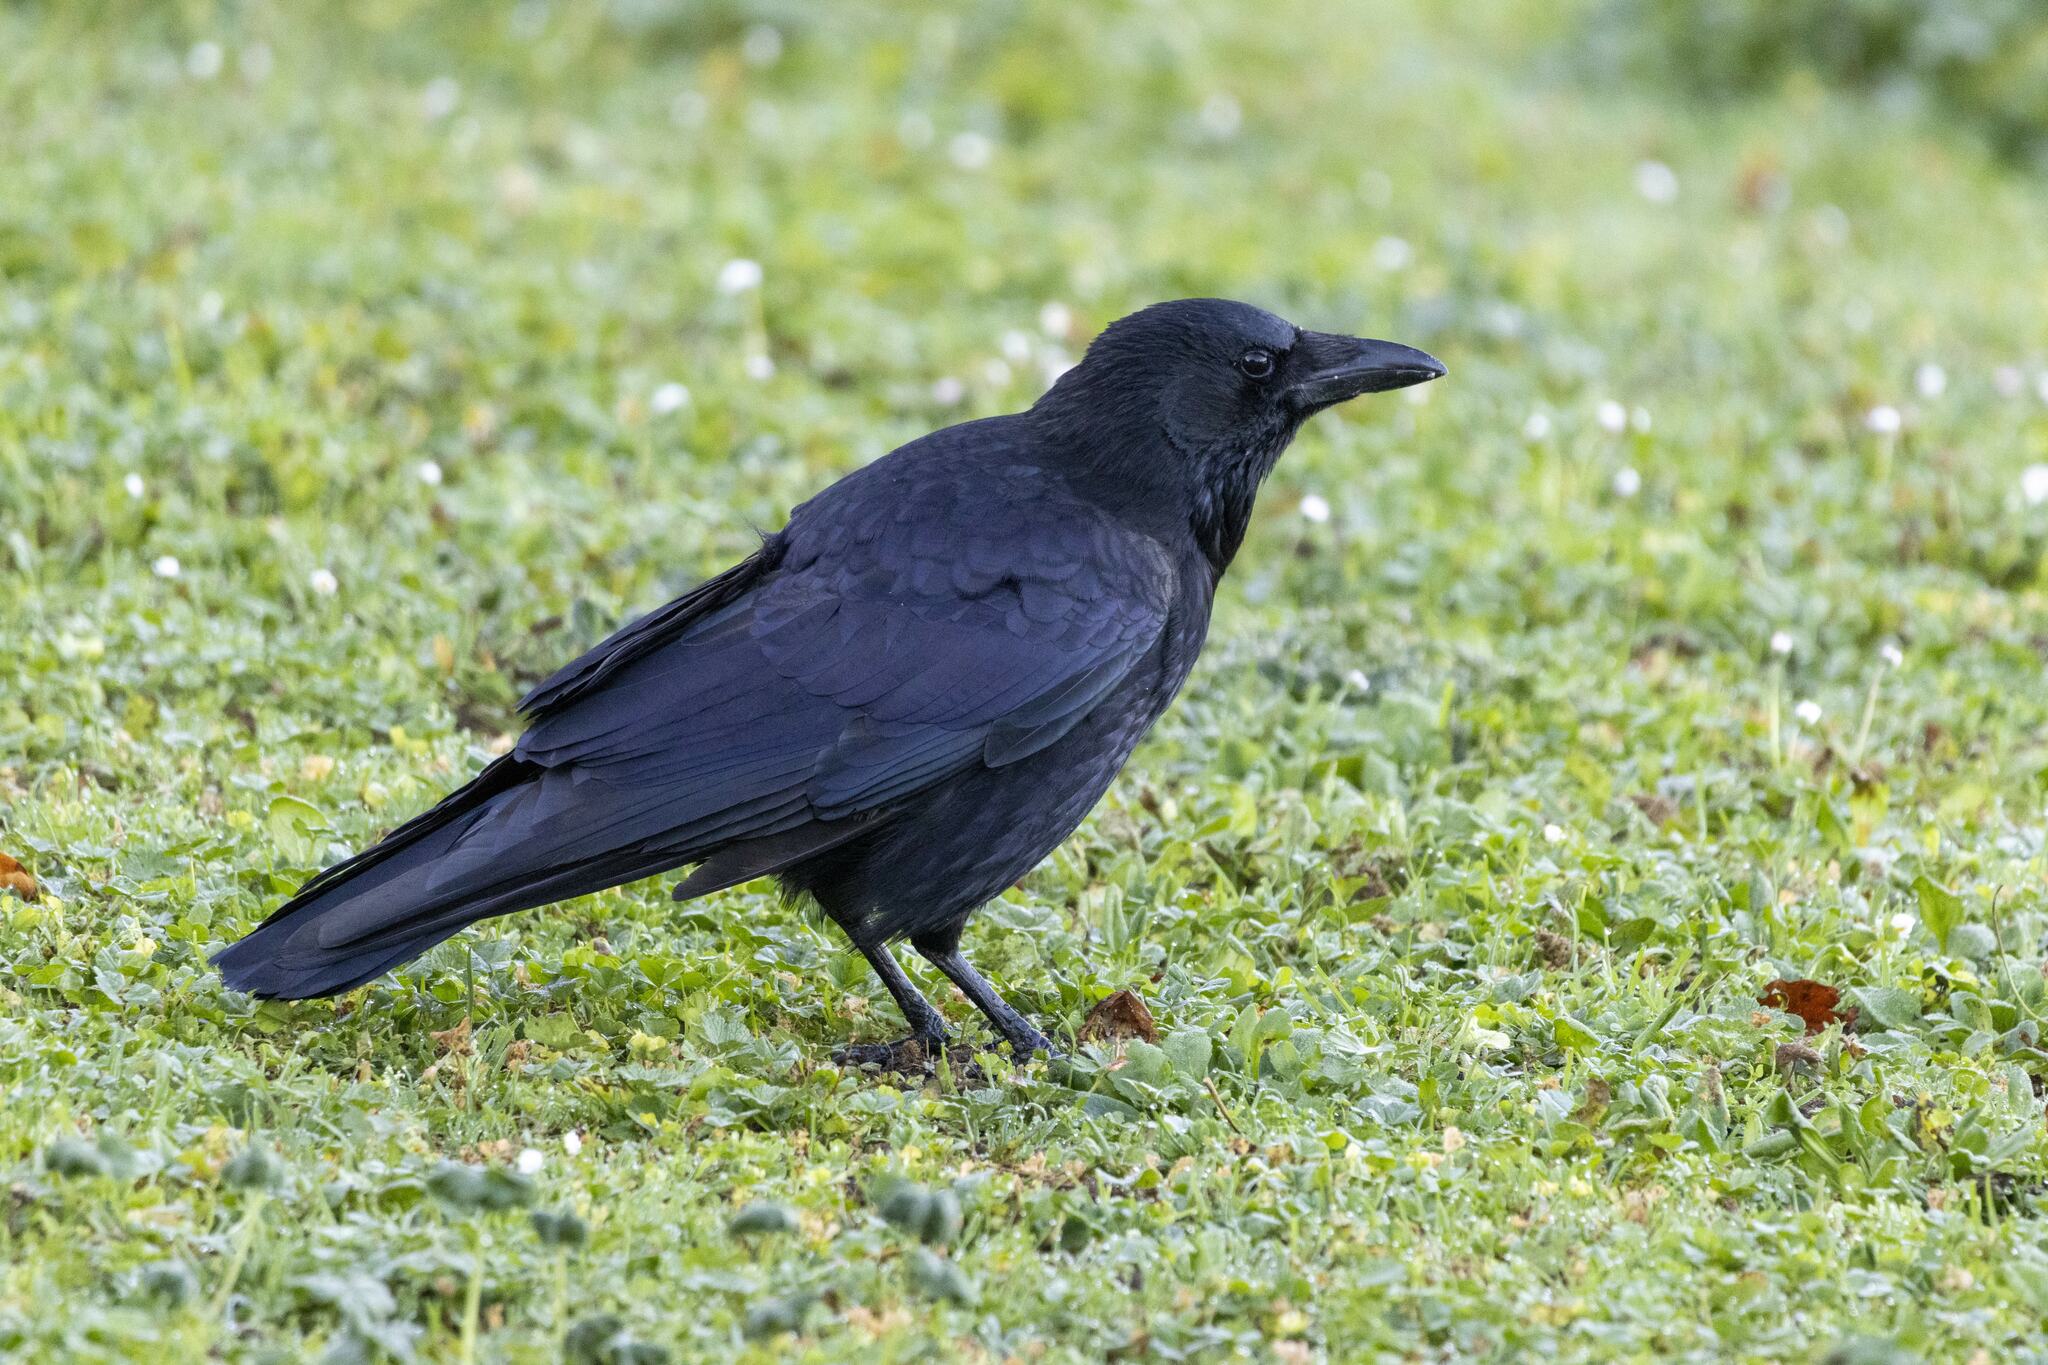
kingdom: Animalia
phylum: Chordata
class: Aves
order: Passeriformes
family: Corvidae
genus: Corvus
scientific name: Corvus corone
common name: Carrion crow
